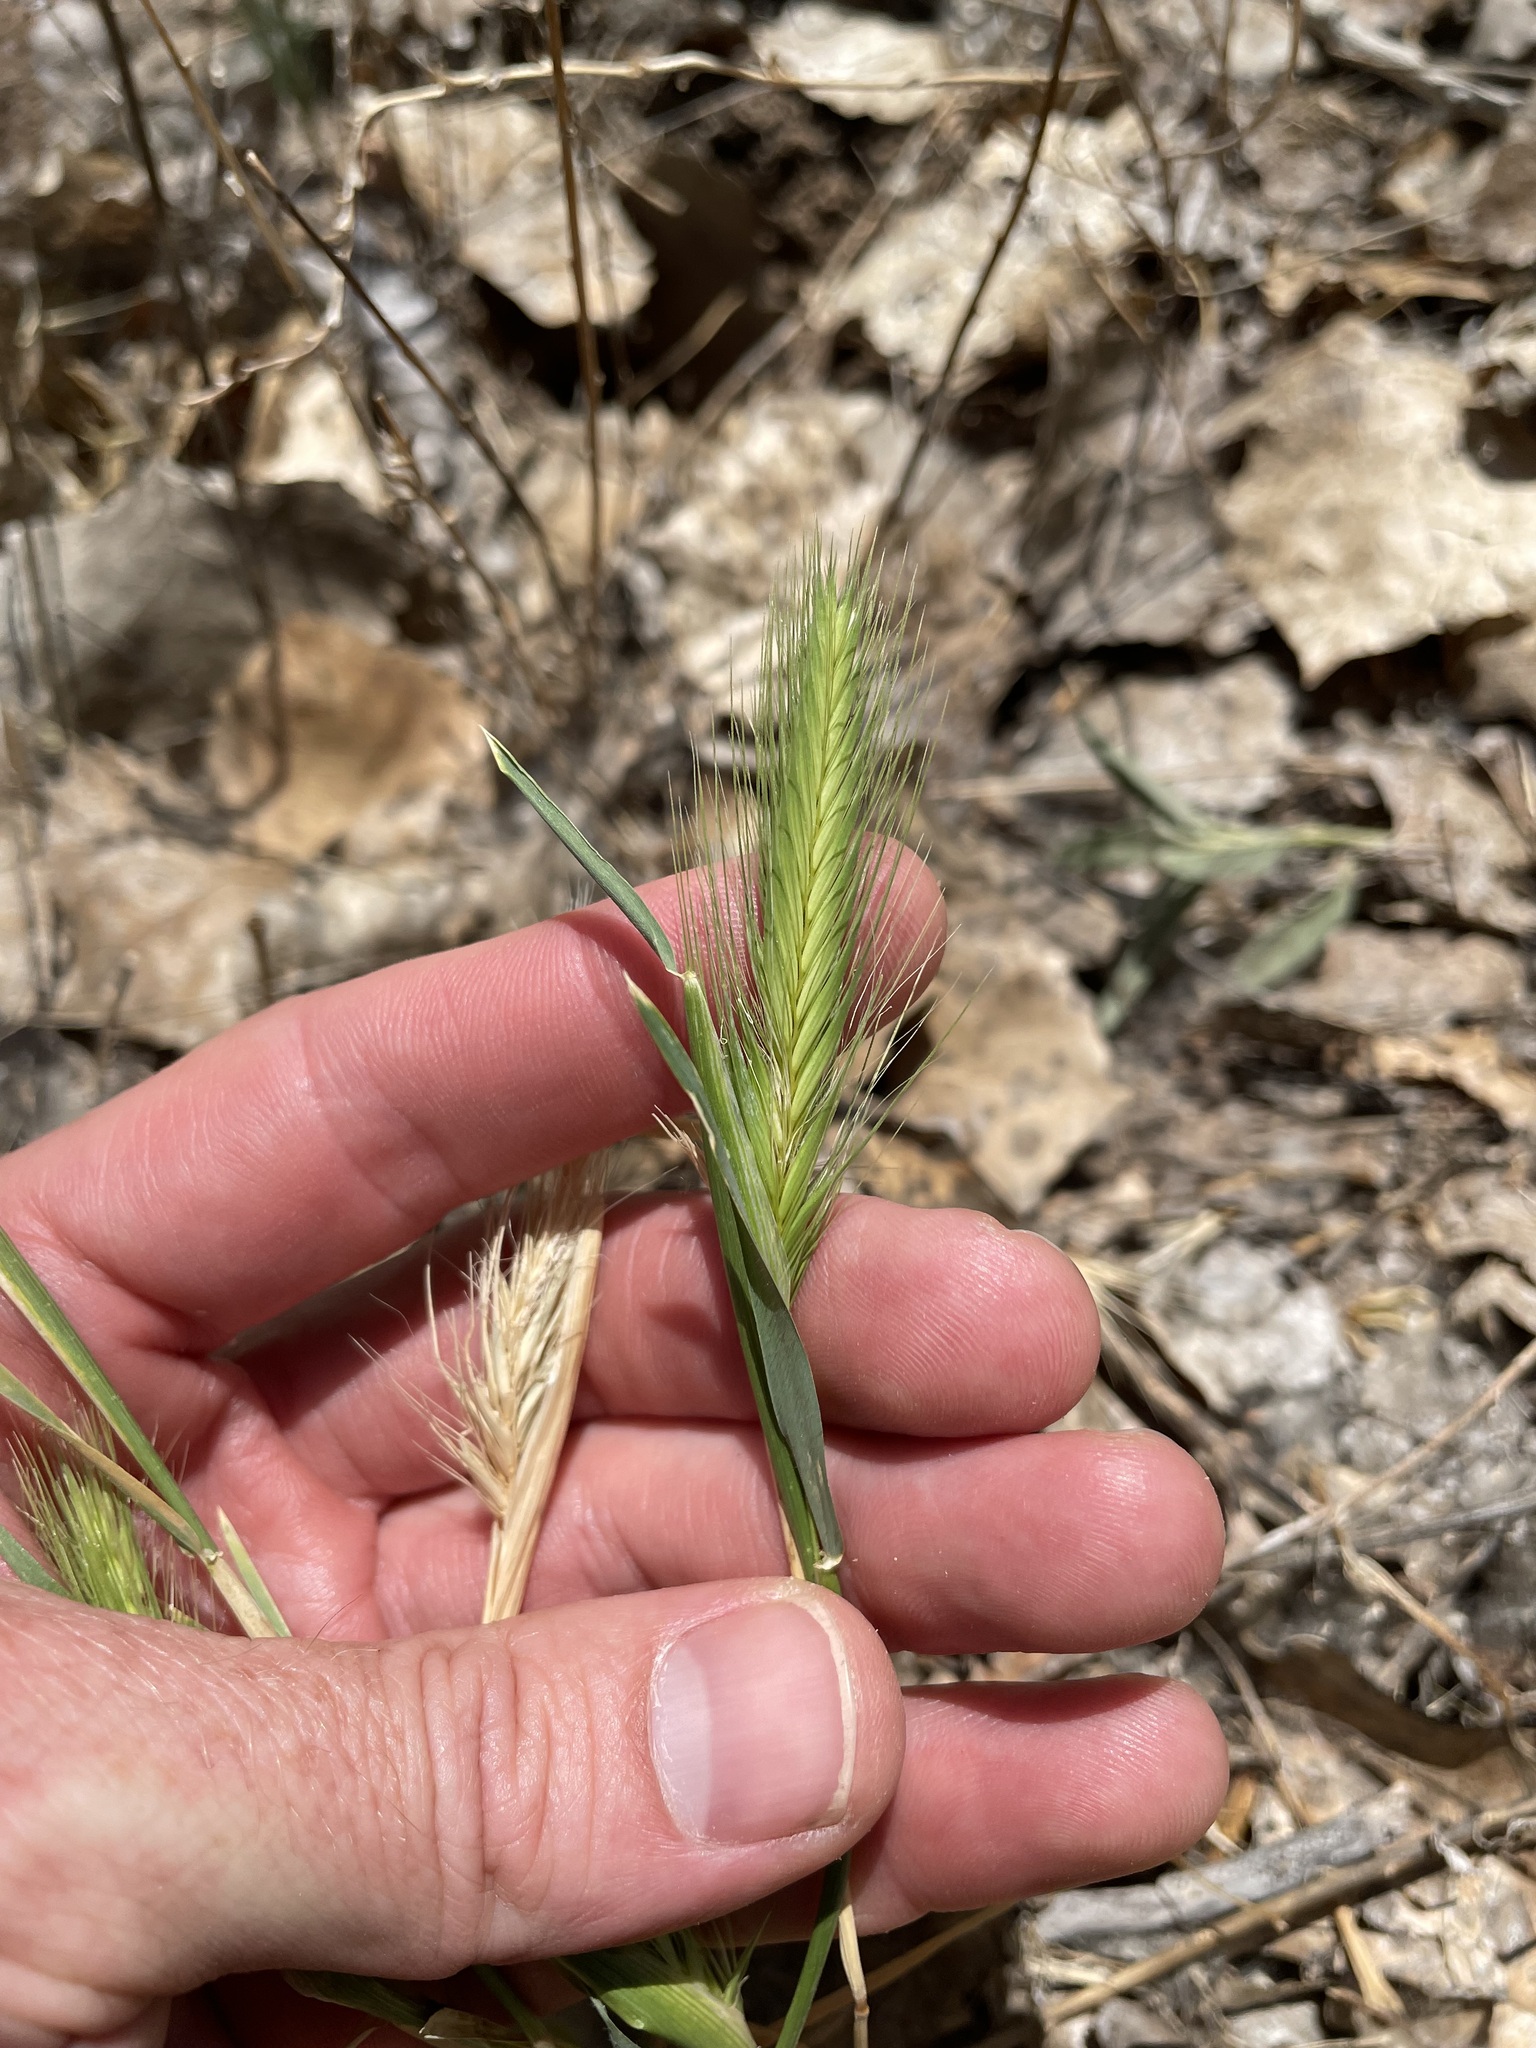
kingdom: Plantae
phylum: Tracheophyta
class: Liliopsida
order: Poales
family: Poaceae
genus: Hordeum
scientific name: Hordeum murinum
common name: Wall barley
